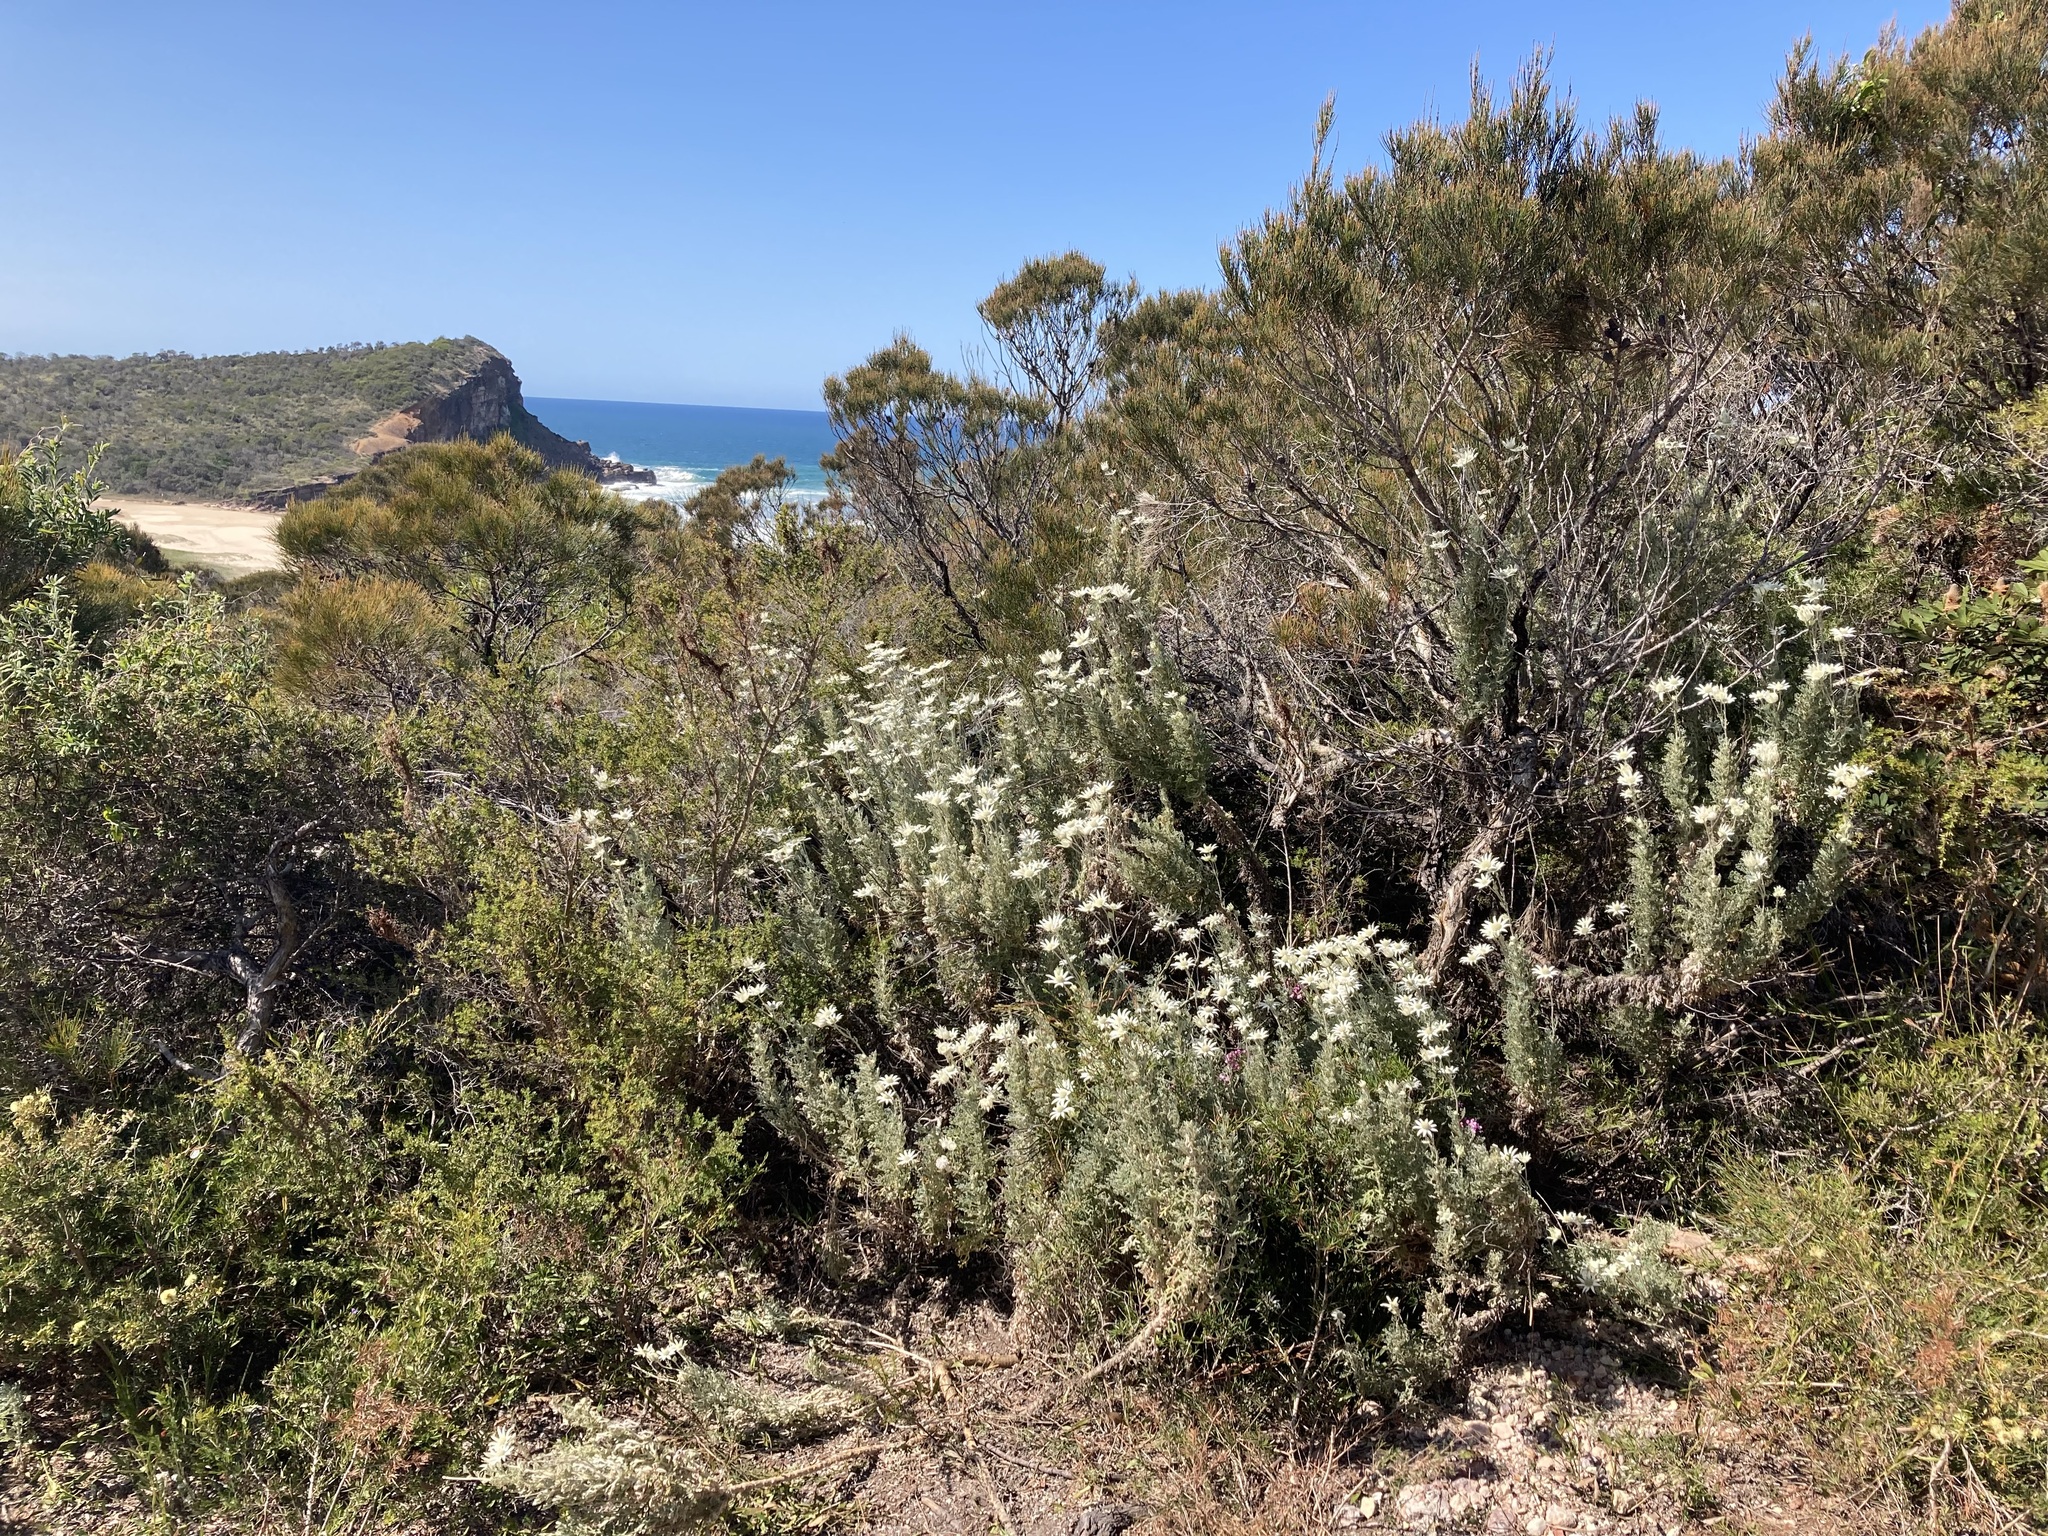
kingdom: Plantae
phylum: Tracheophyta
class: Magnoliopsida
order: Apiales
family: Apiaceae
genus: Actinotus
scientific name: Actinotus helianthi
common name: Flannel-flower
